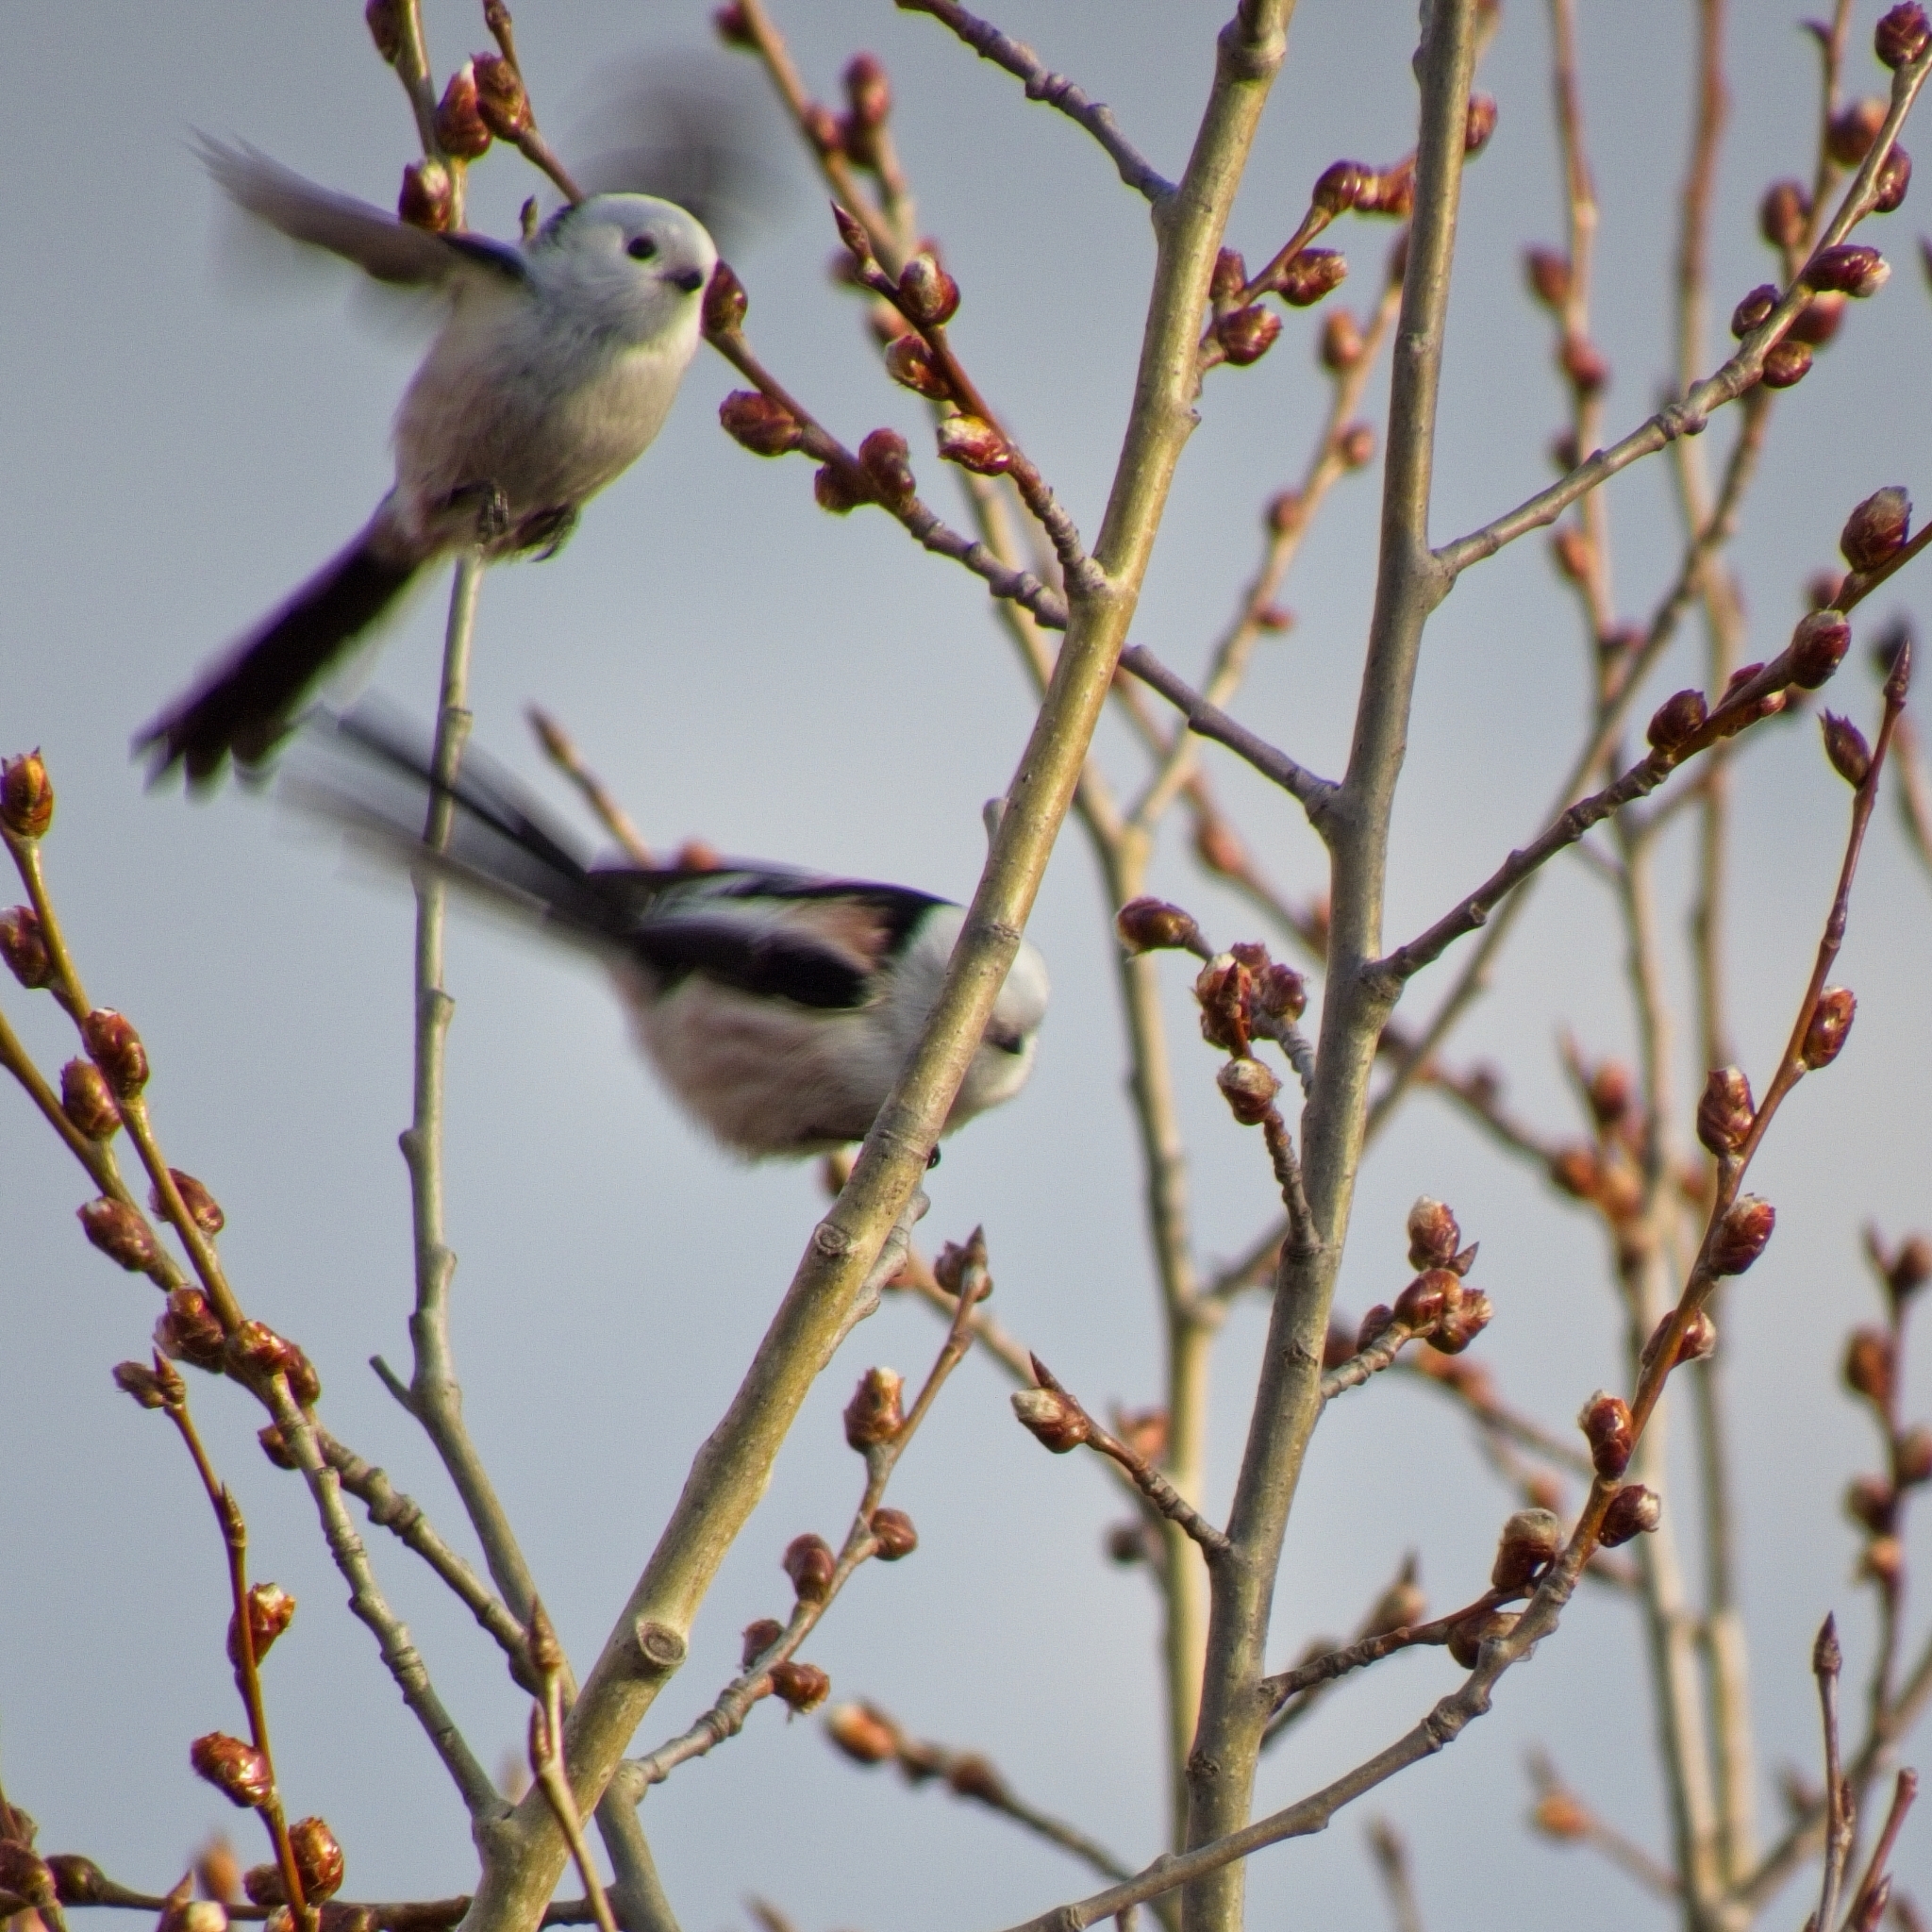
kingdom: Animalia
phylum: Chordata
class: Aves
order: Passeriformes
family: Aegithalidae
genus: Aegithalos
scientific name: Aegithalos caudatus
